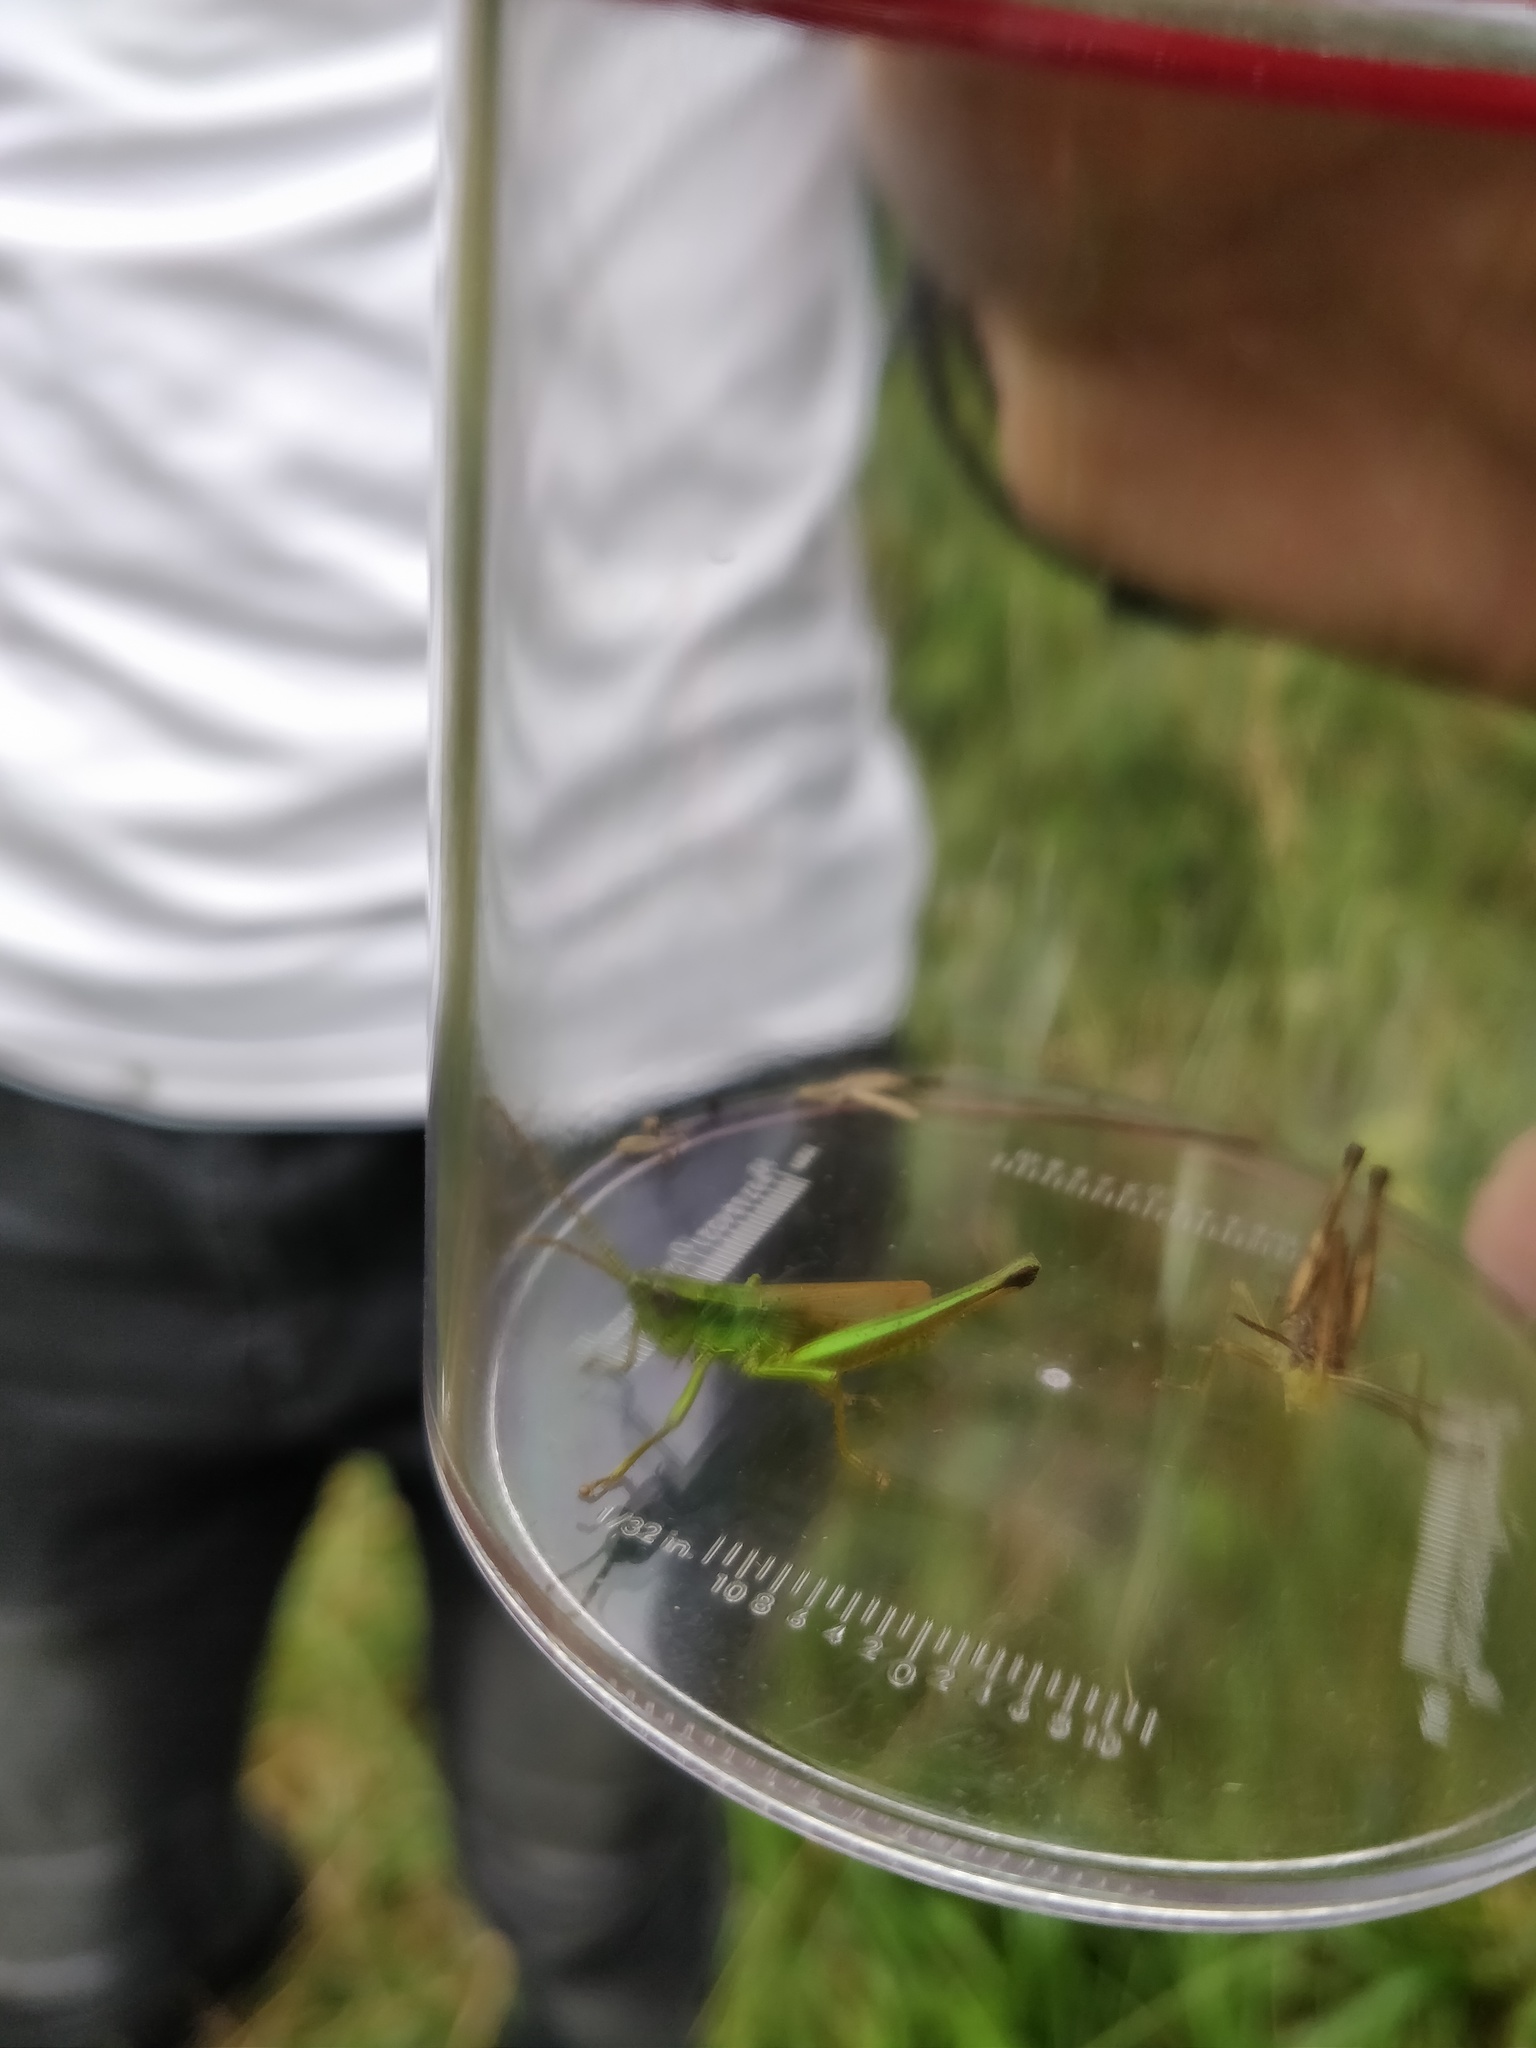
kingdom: Animalia
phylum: Arthropoda
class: Insecta
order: Orthoptera
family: Acrididae
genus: Chrysochraon
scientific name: Chrysochraon dispar
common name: Large gold grasshopper
